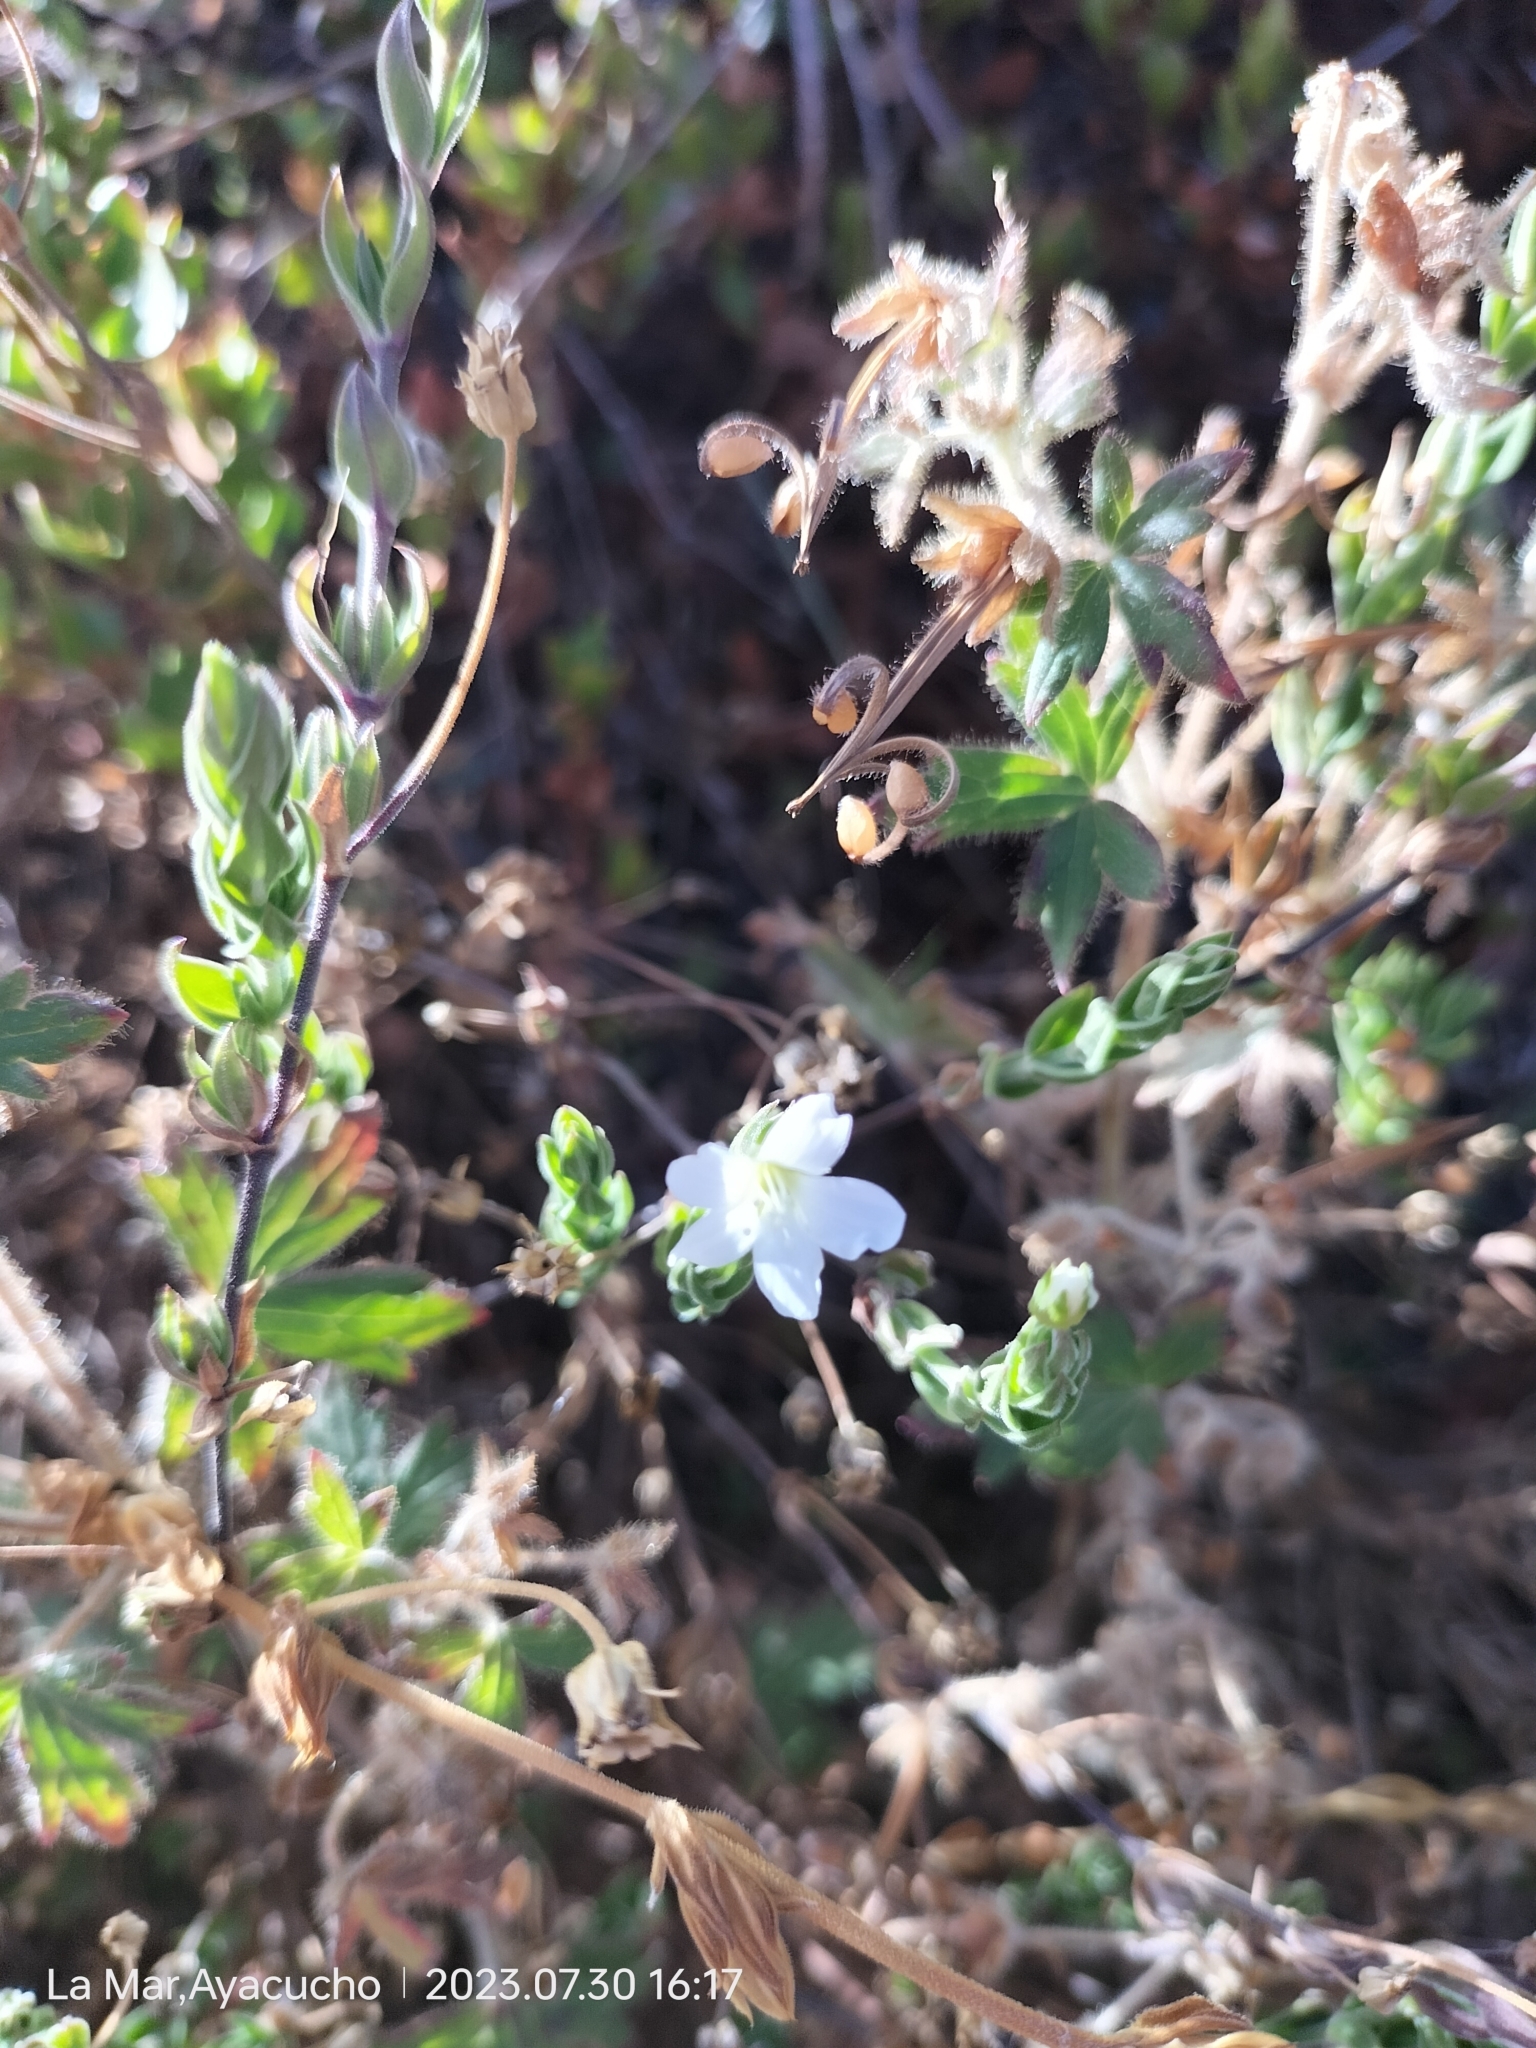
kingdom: Plantae
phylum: Tracheophyta
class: Magnoliopsida
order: Caryophyllales
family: Caryophyllaceae
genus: Arenaria
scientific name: Arenaria lanuginosa
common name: Spread sandwort
